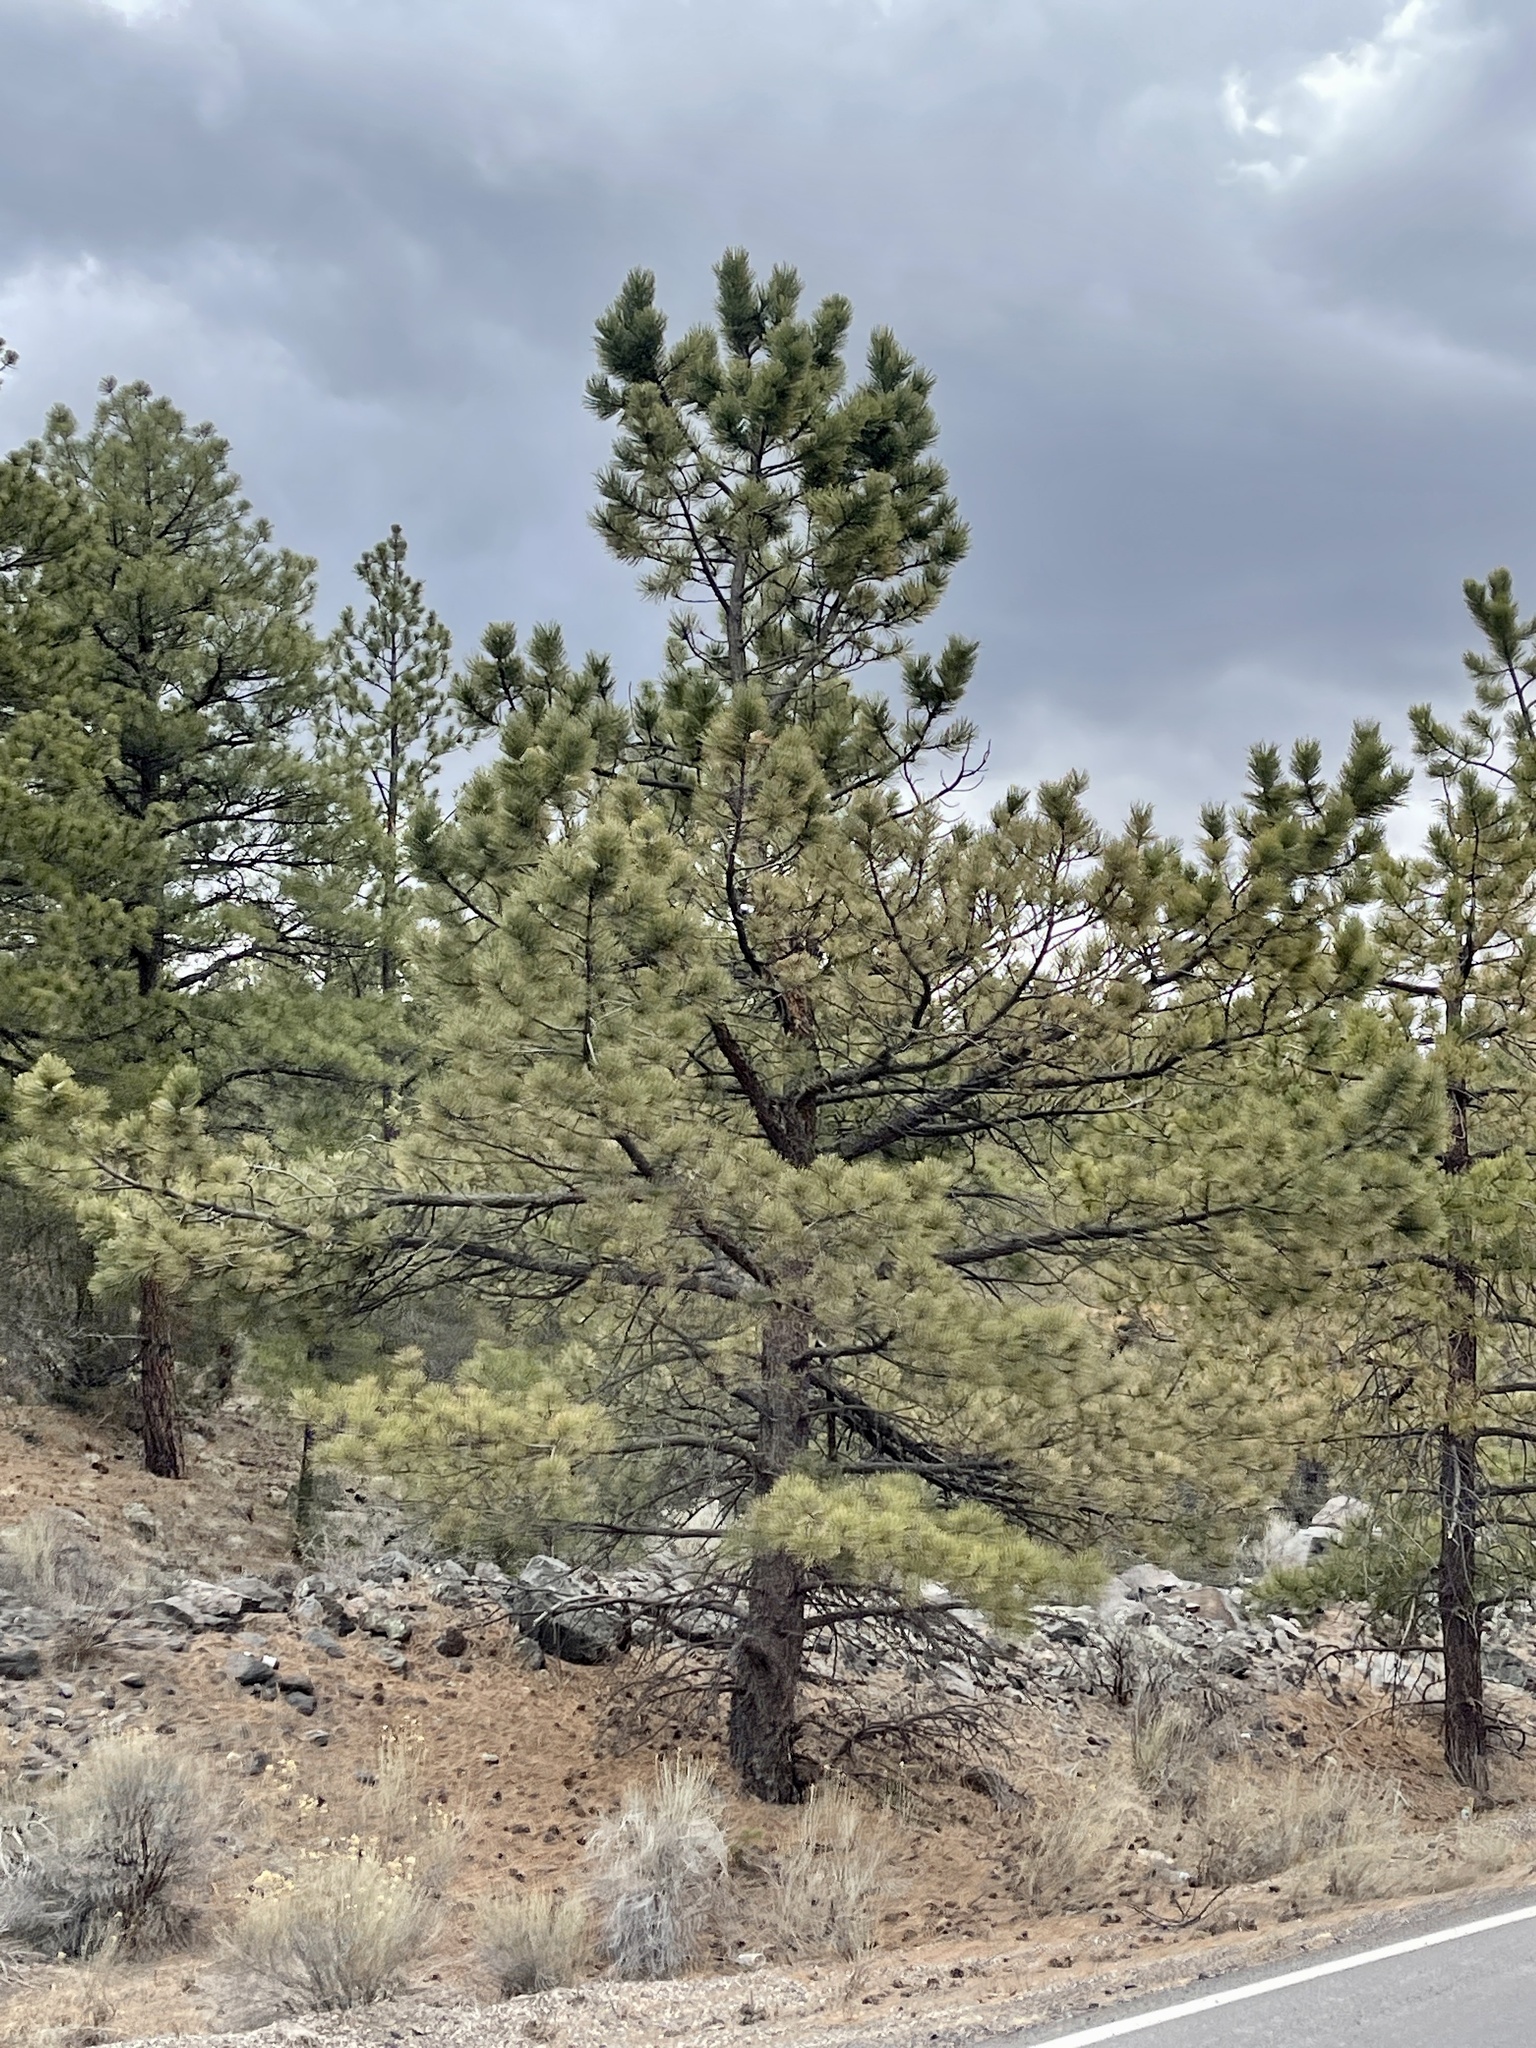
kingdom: Plantae
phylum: Tracheophyta
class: Pinopsida
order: Pinales
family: Pinaceae
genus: Pinus
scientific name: Pinus ponderosa
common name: Western yellow-pine
